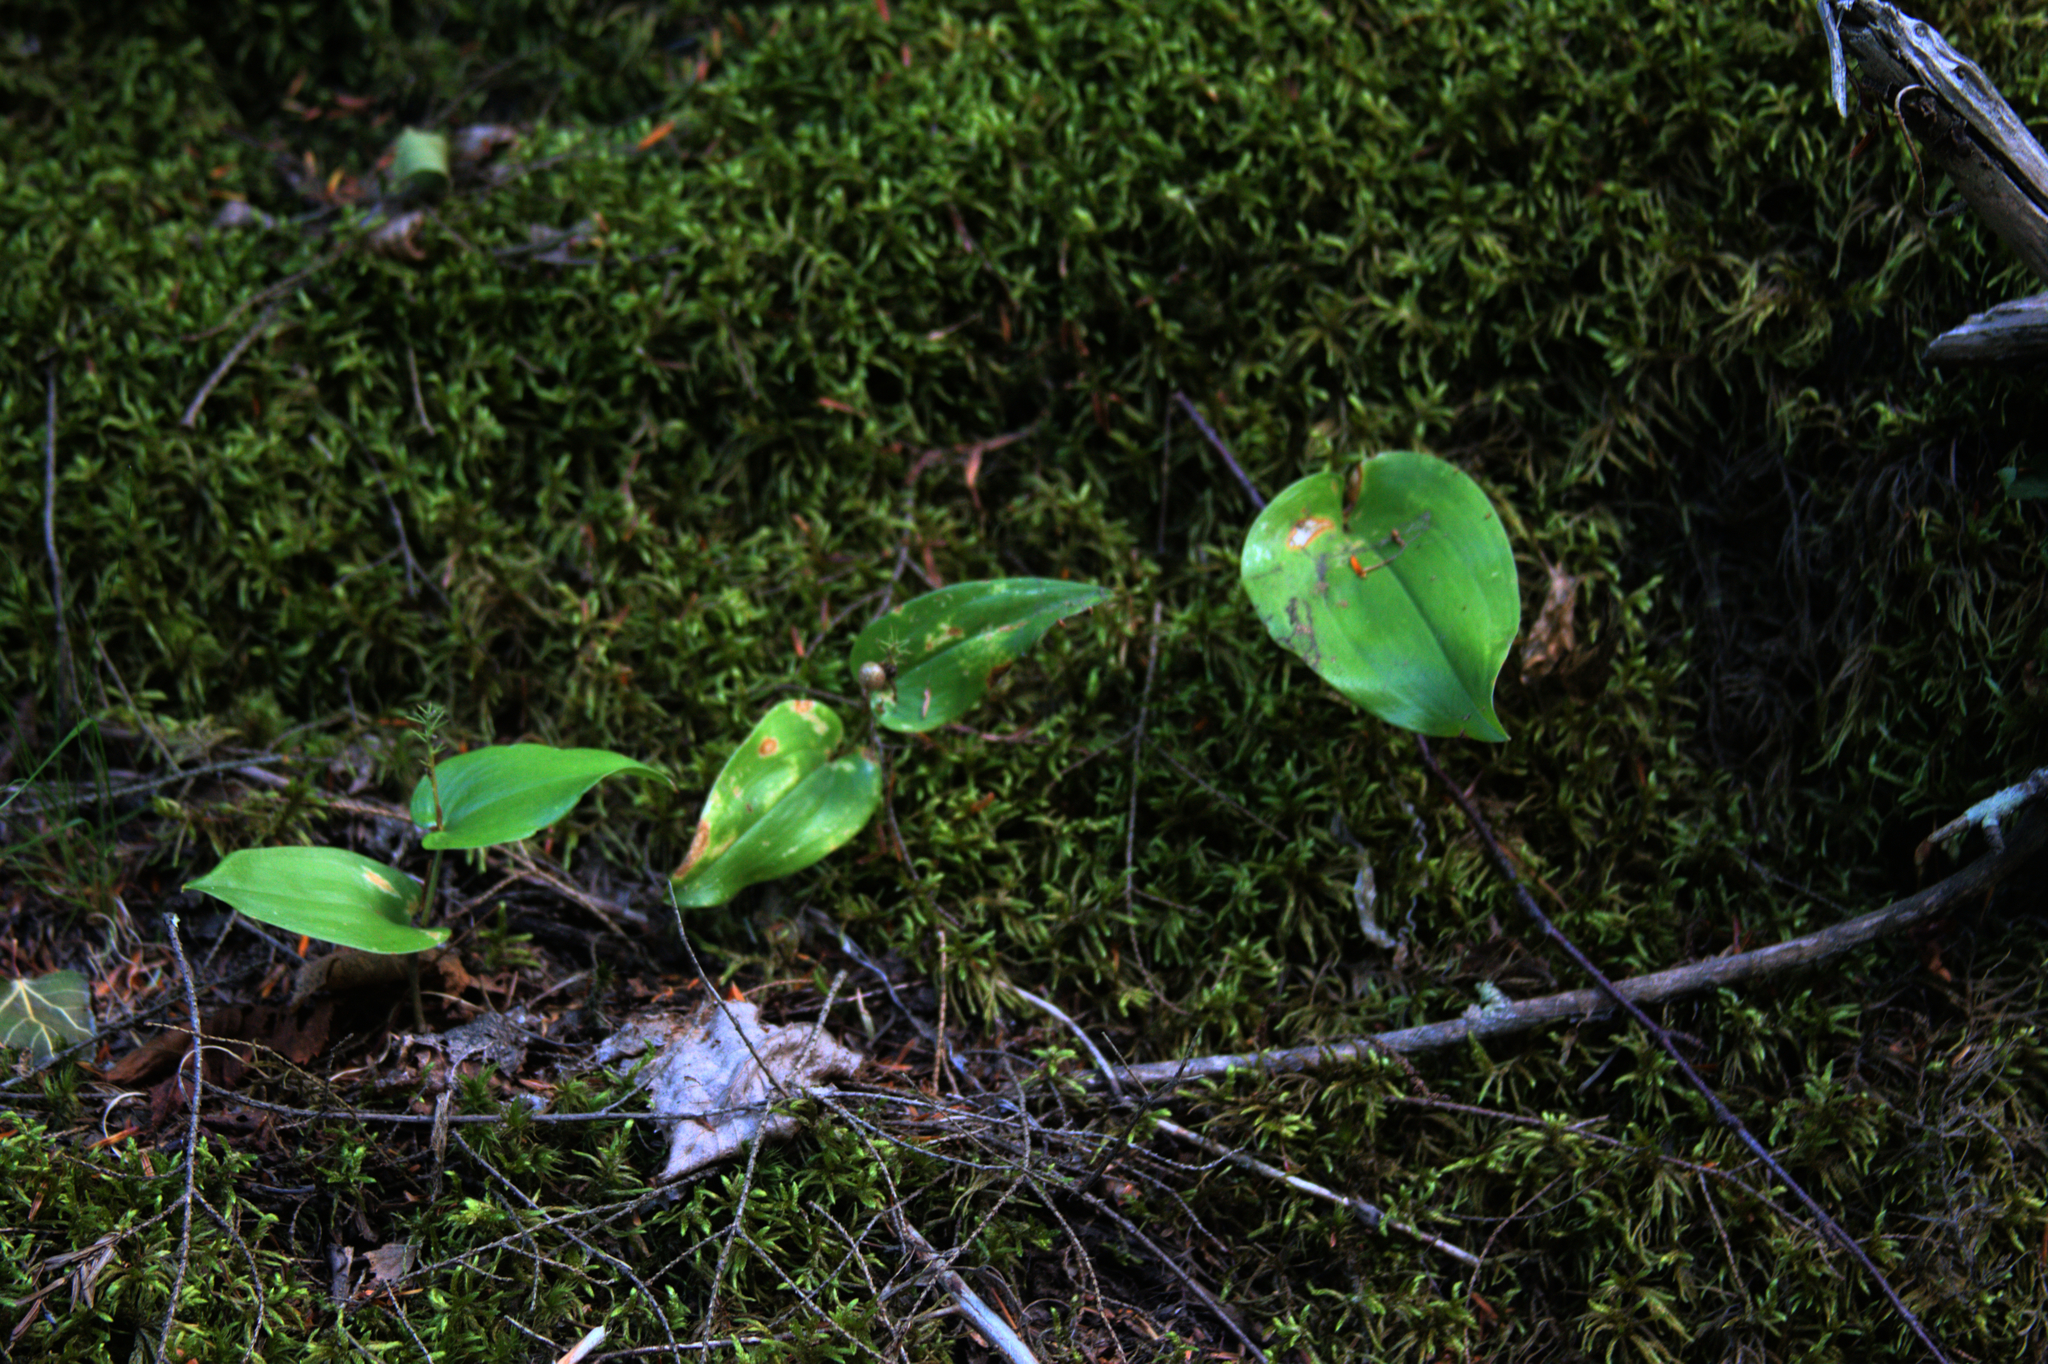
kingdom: Plantae
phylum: Tracheophyta
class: Liliopsida
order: Asparagales
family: Asparagaceae
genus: Maianthemum
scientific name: Maianthemum canadense
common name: False lily-of-the-valley
